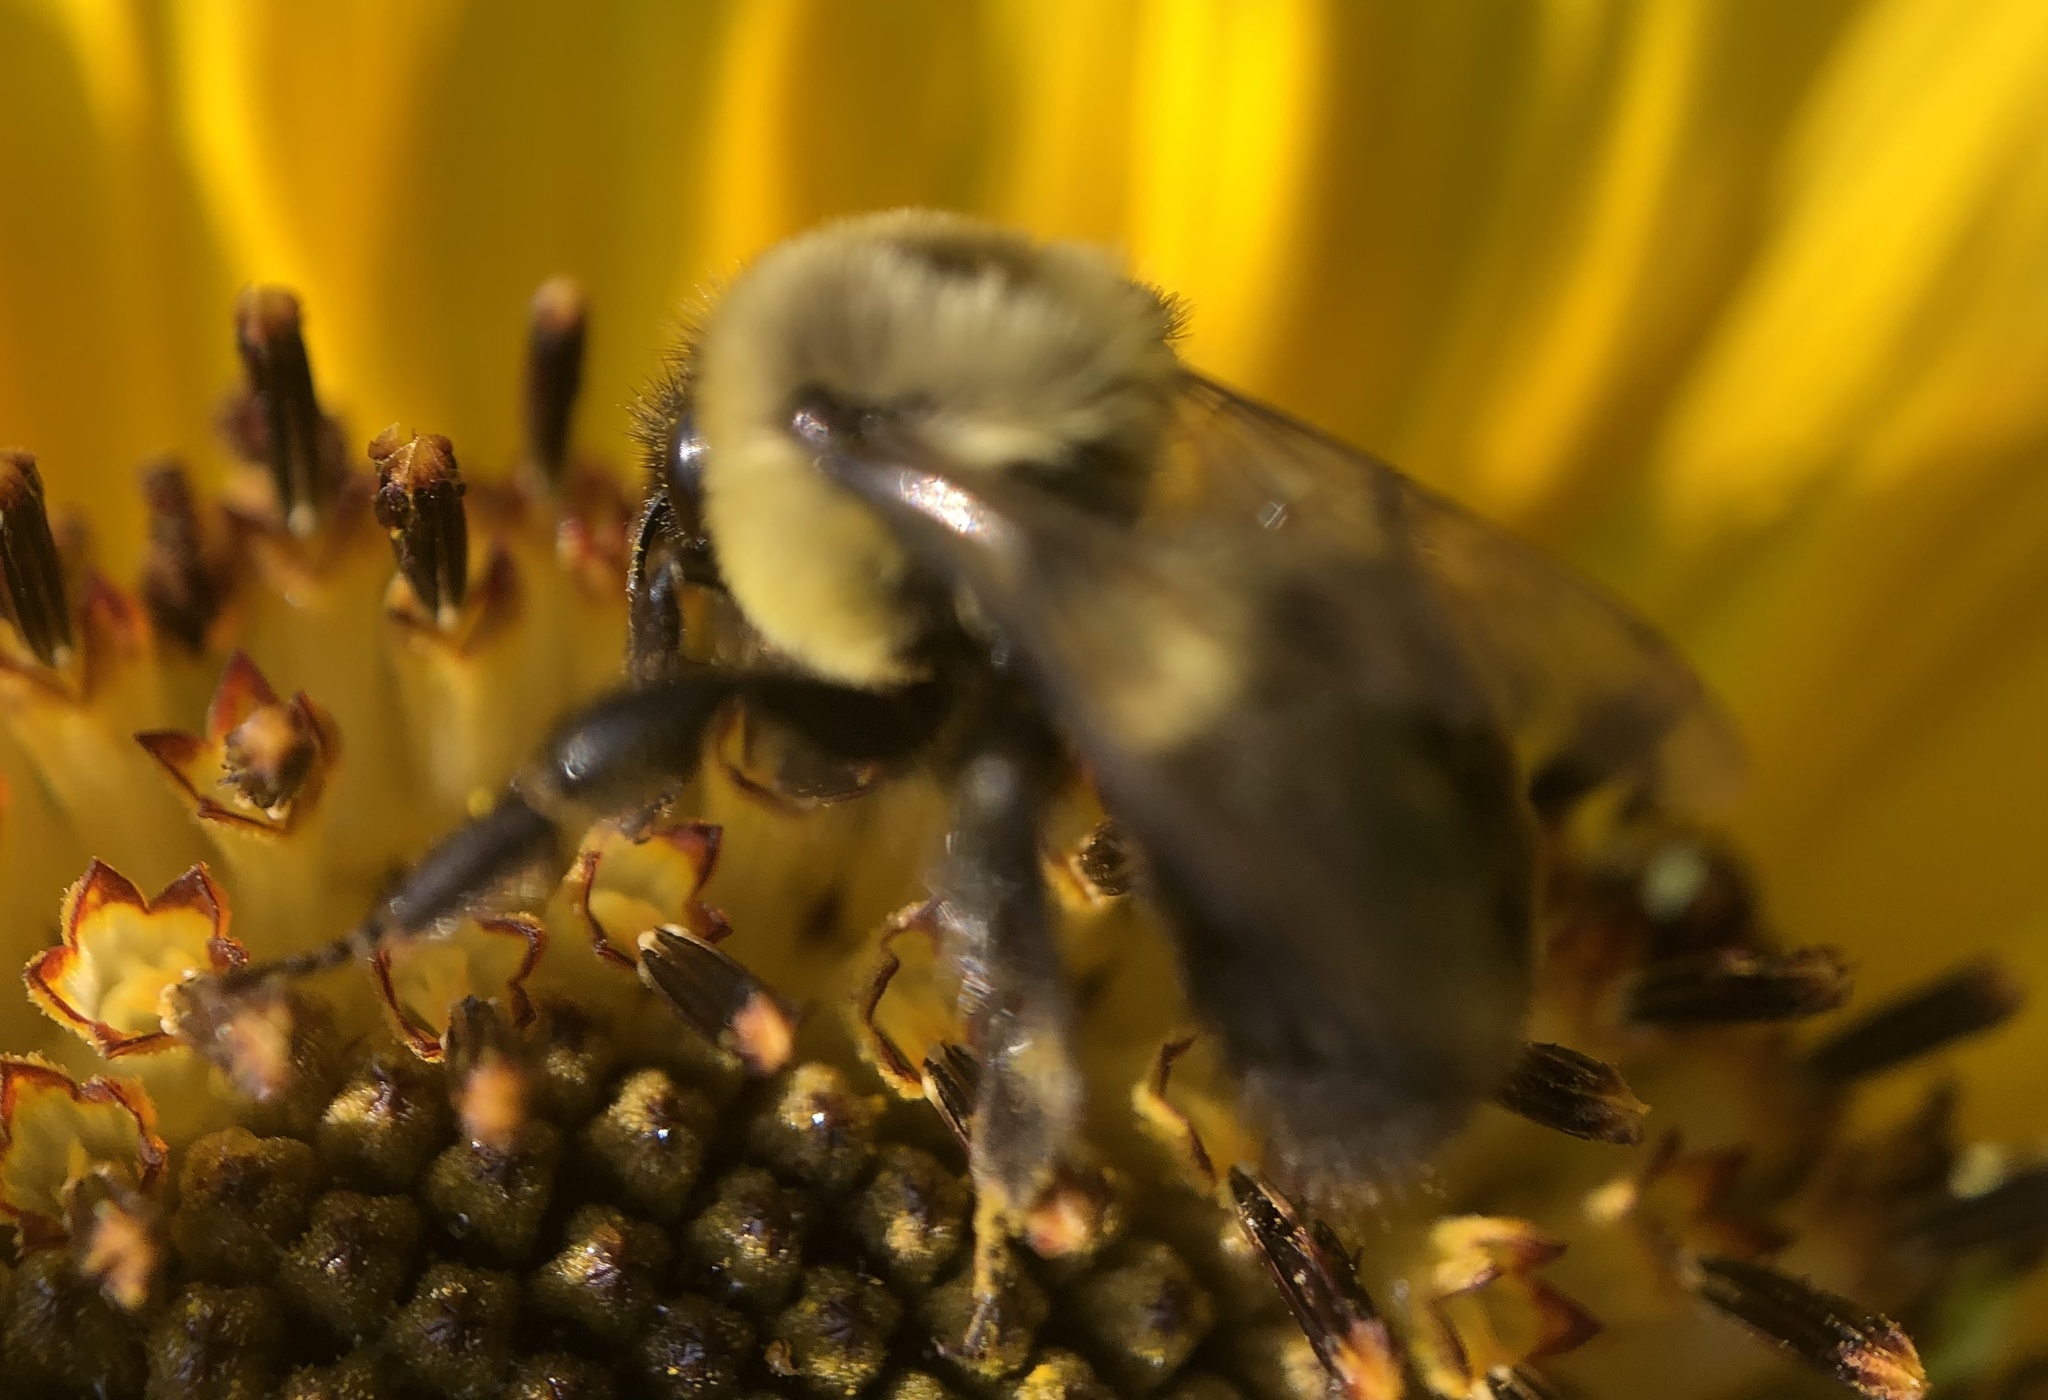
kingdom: Animalia
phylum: Arthropoda
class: Insecta
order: Hymenoptera
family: Apidae
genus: Bombus
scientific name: Bombus impatiens
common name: Common eastern bumble bee
